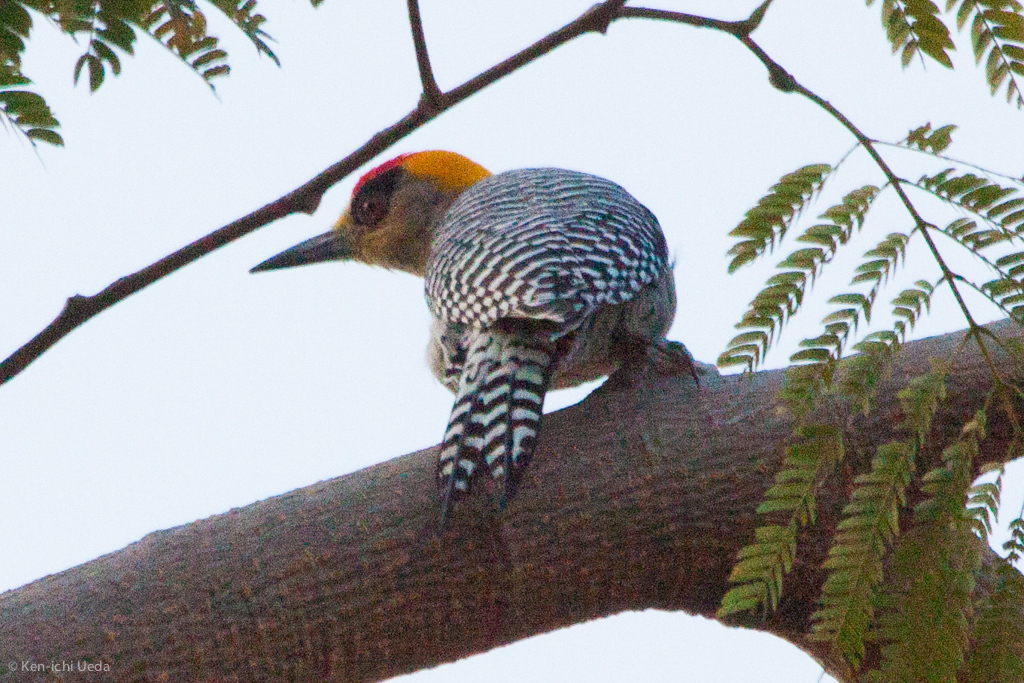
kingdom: Animalia
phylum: Chordata
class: Aves
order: Piciformes
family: Picidae
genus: Melanerpes
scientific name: Melanerpes chrysogenys
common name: Golden-cheeked woodpecker
